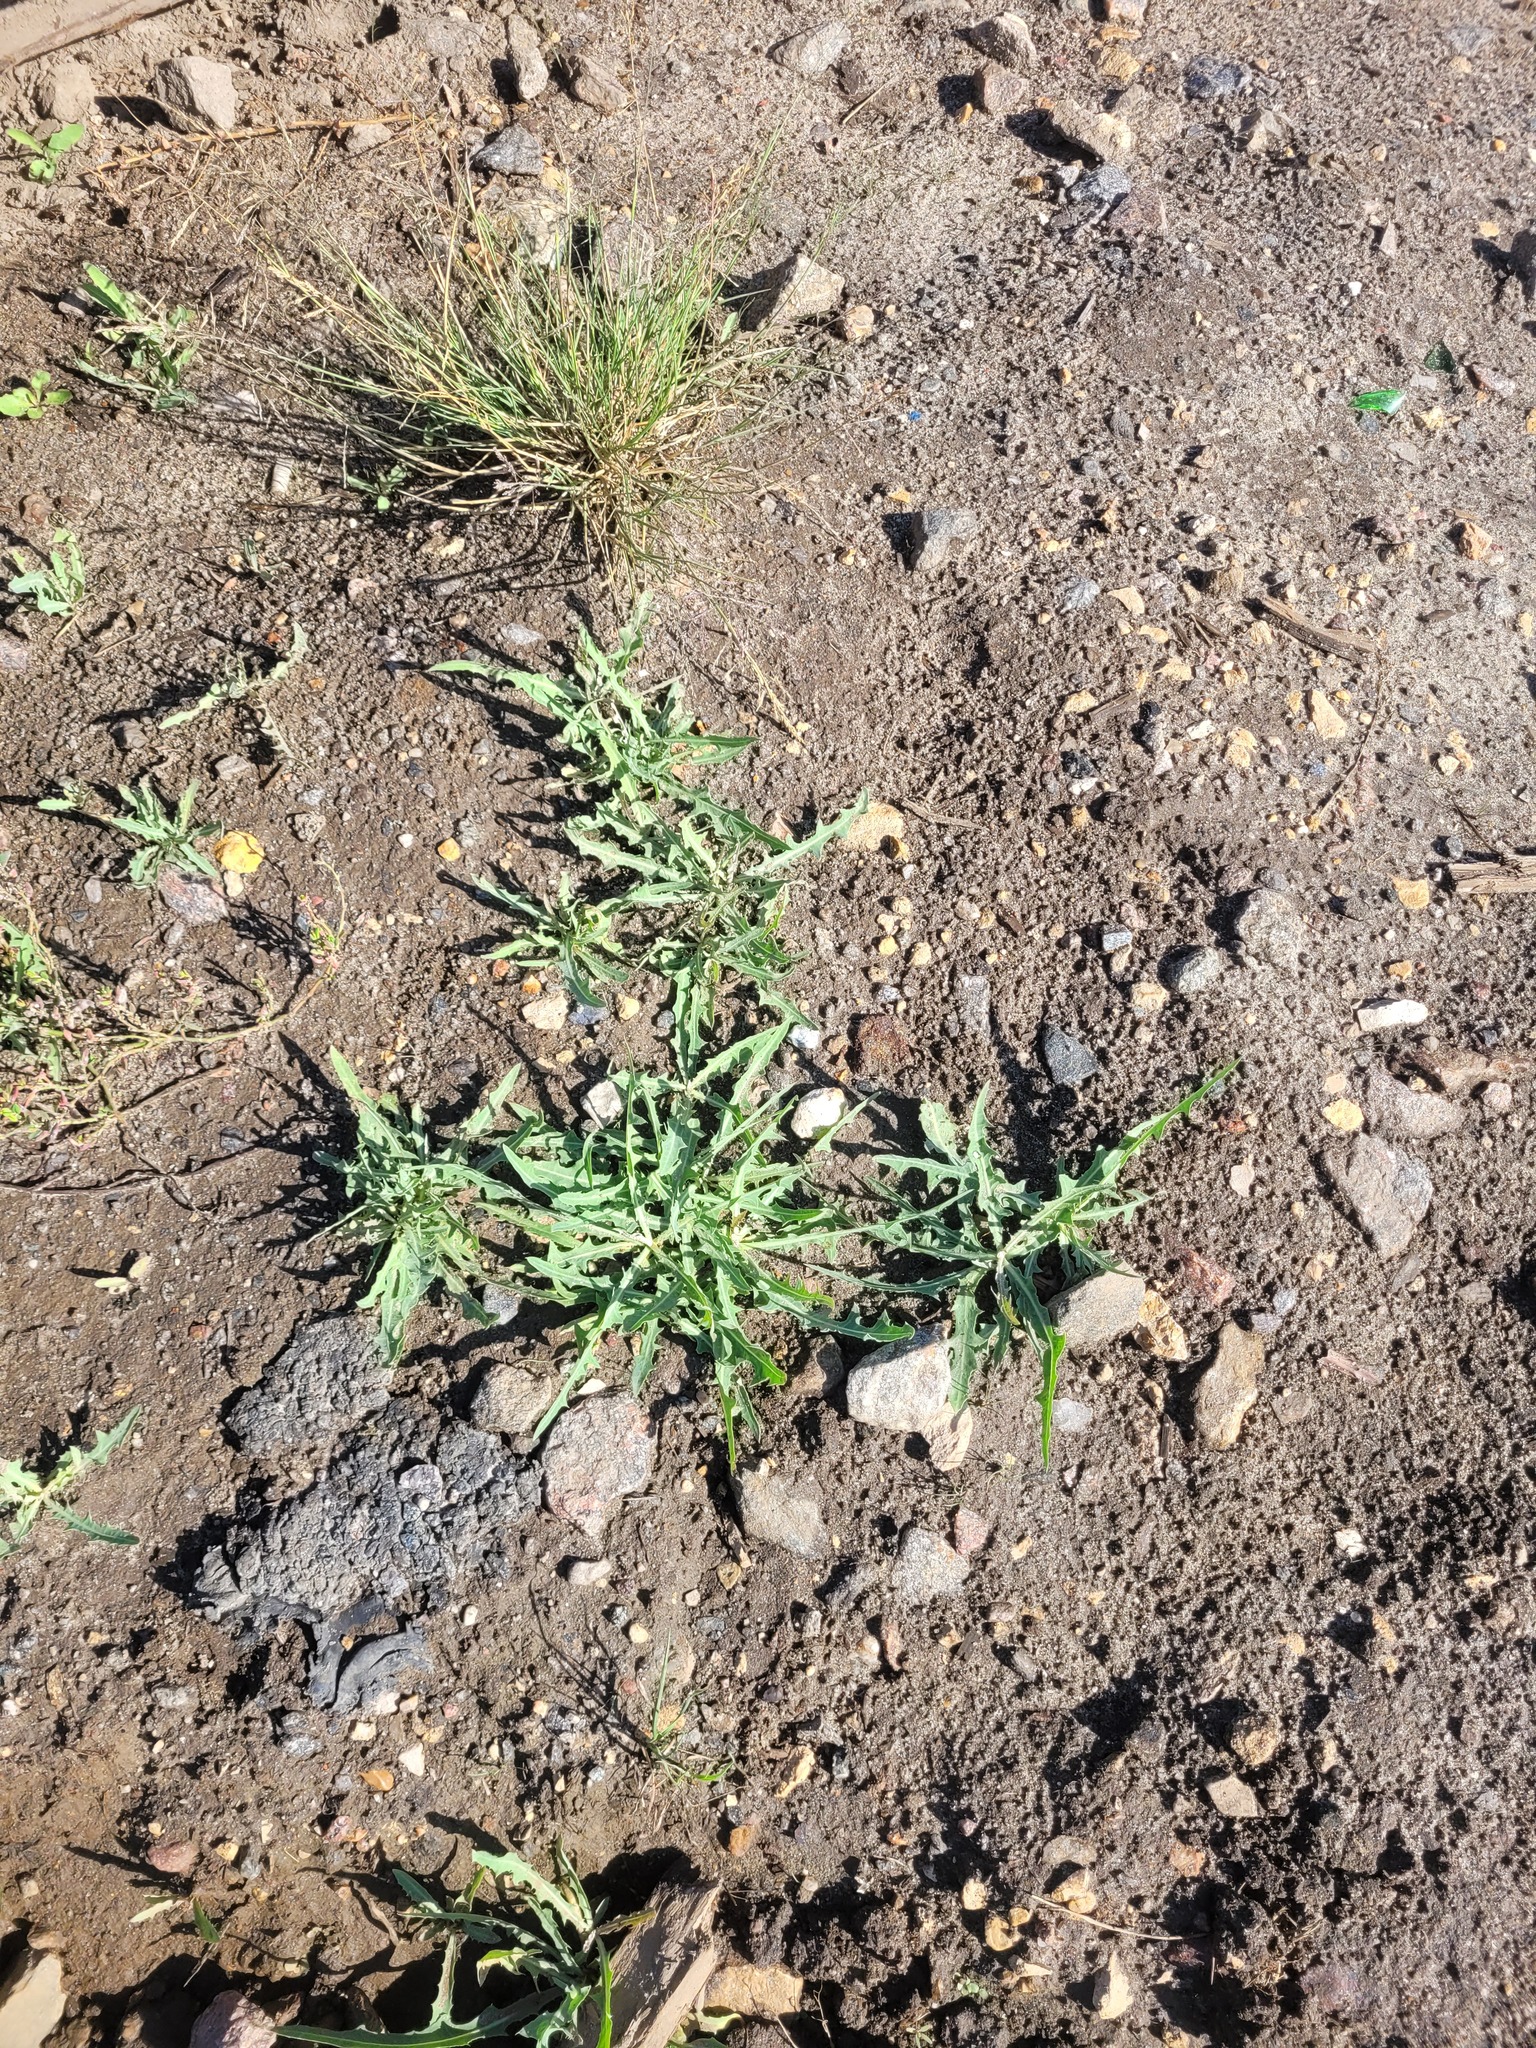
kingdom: Plantae
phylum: Tracheophyta
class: Magnoliopsida
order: Asterales
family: Asteraceae
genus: Lactuca
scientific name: Lactuca tatarica
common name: Blue lettuce
